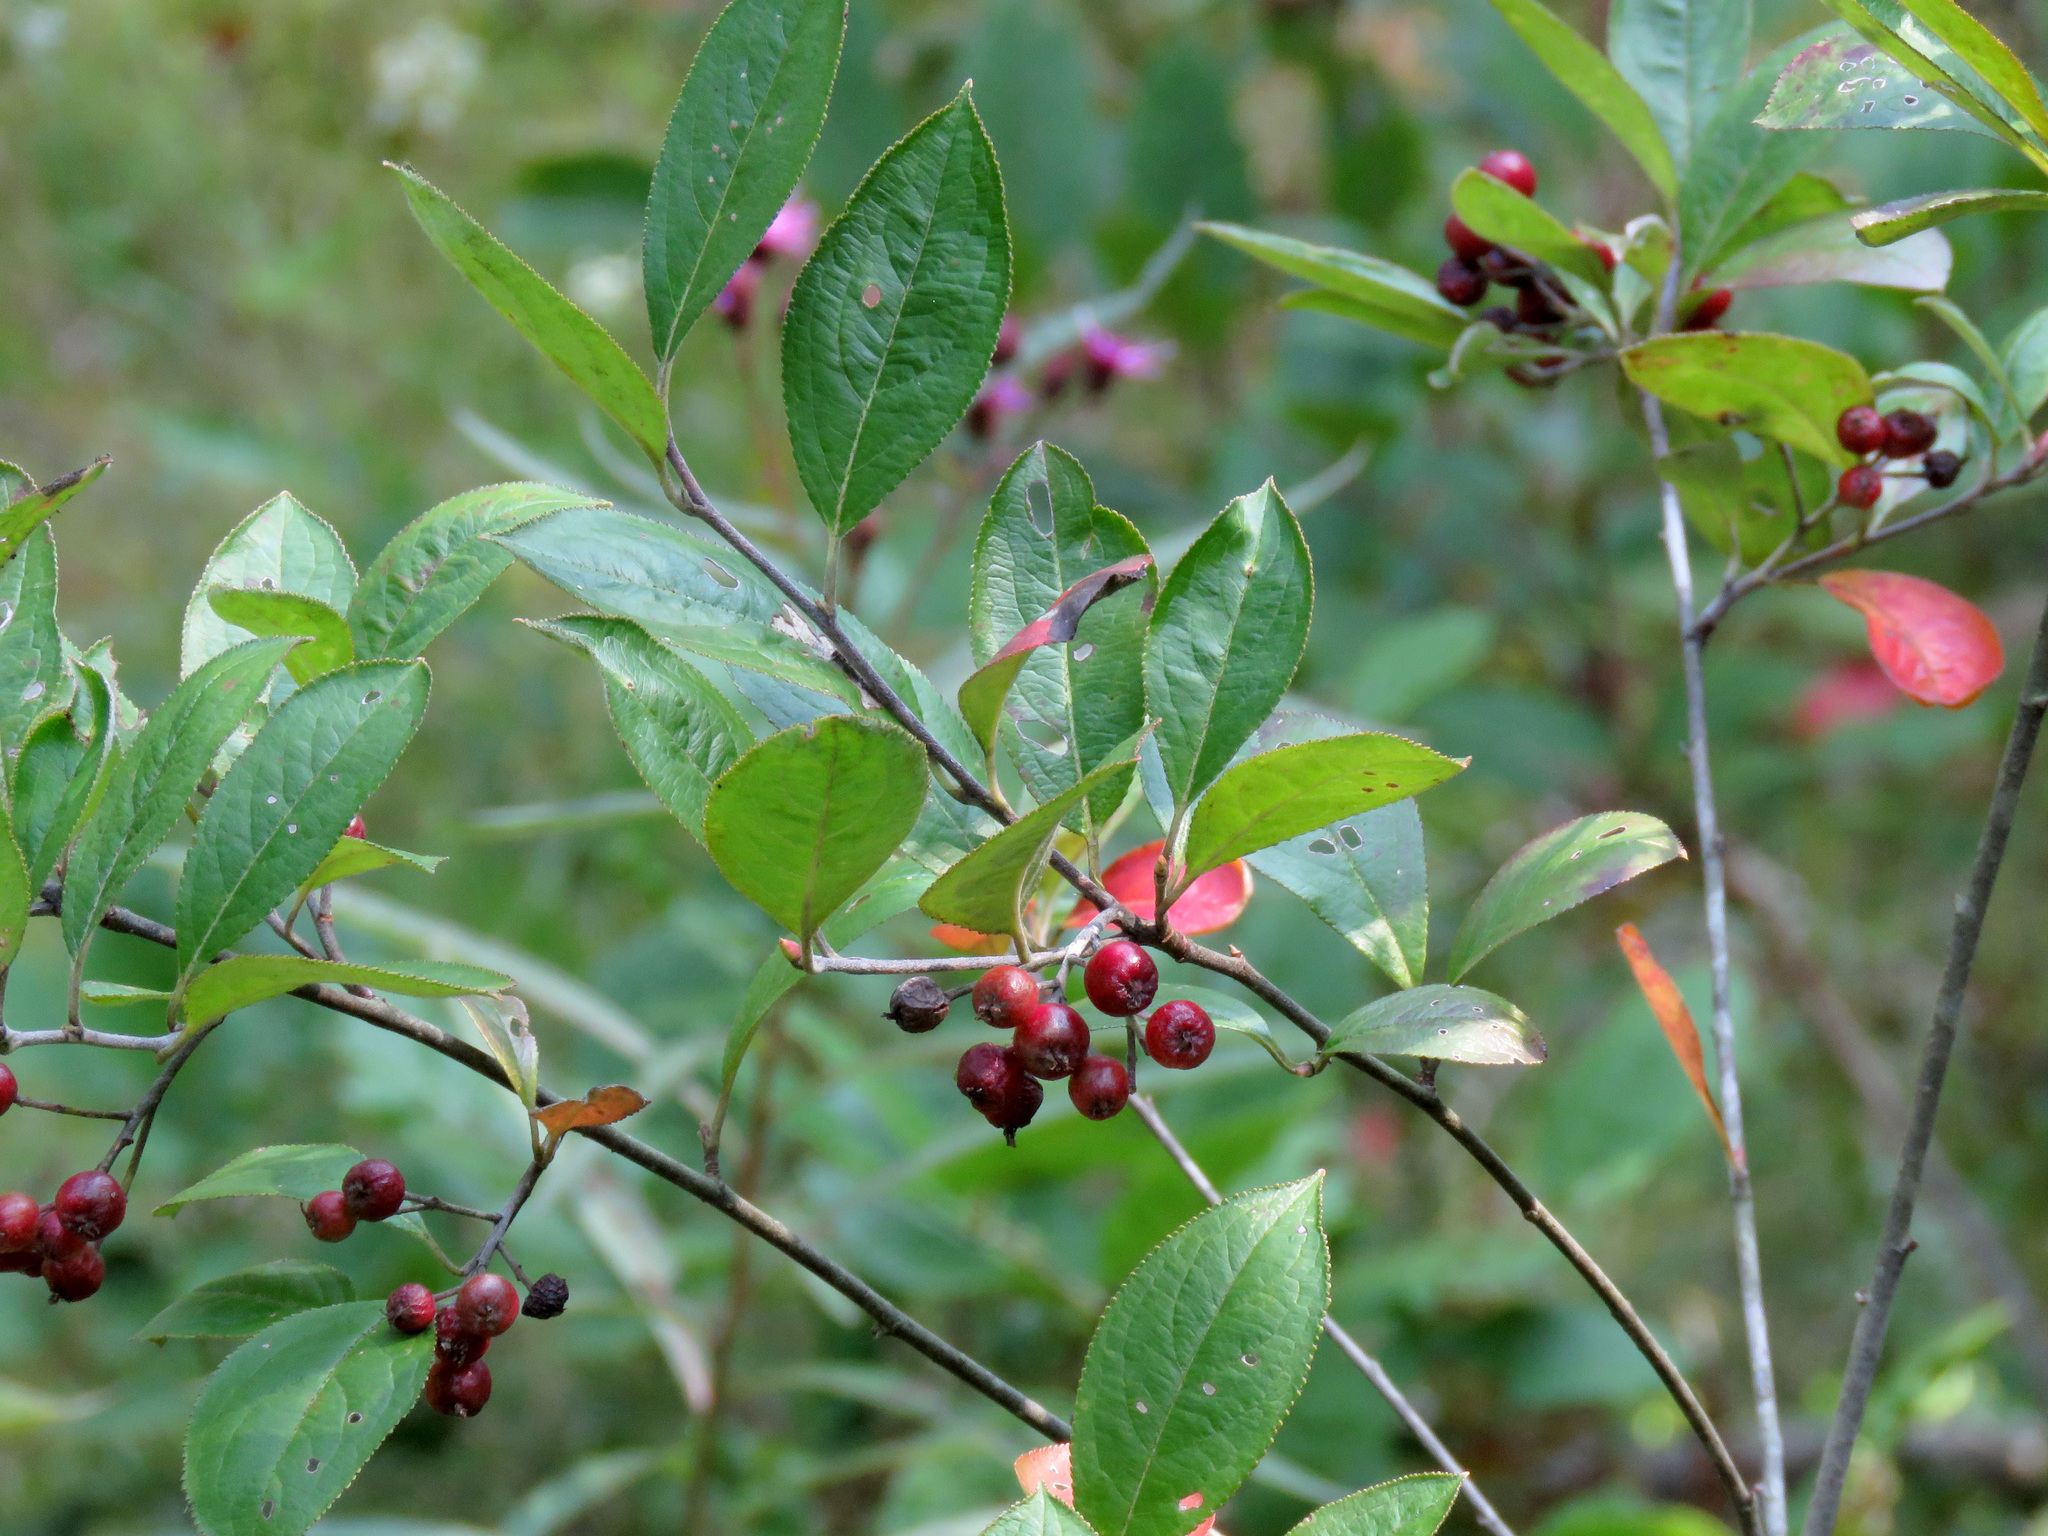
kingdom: Plantae
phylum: Tracheophyta
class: Magnoliopsida
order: Rosales
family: Rosaceae
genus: Aronia
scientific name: Aronia arbutifolia
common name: Red chokeberry
